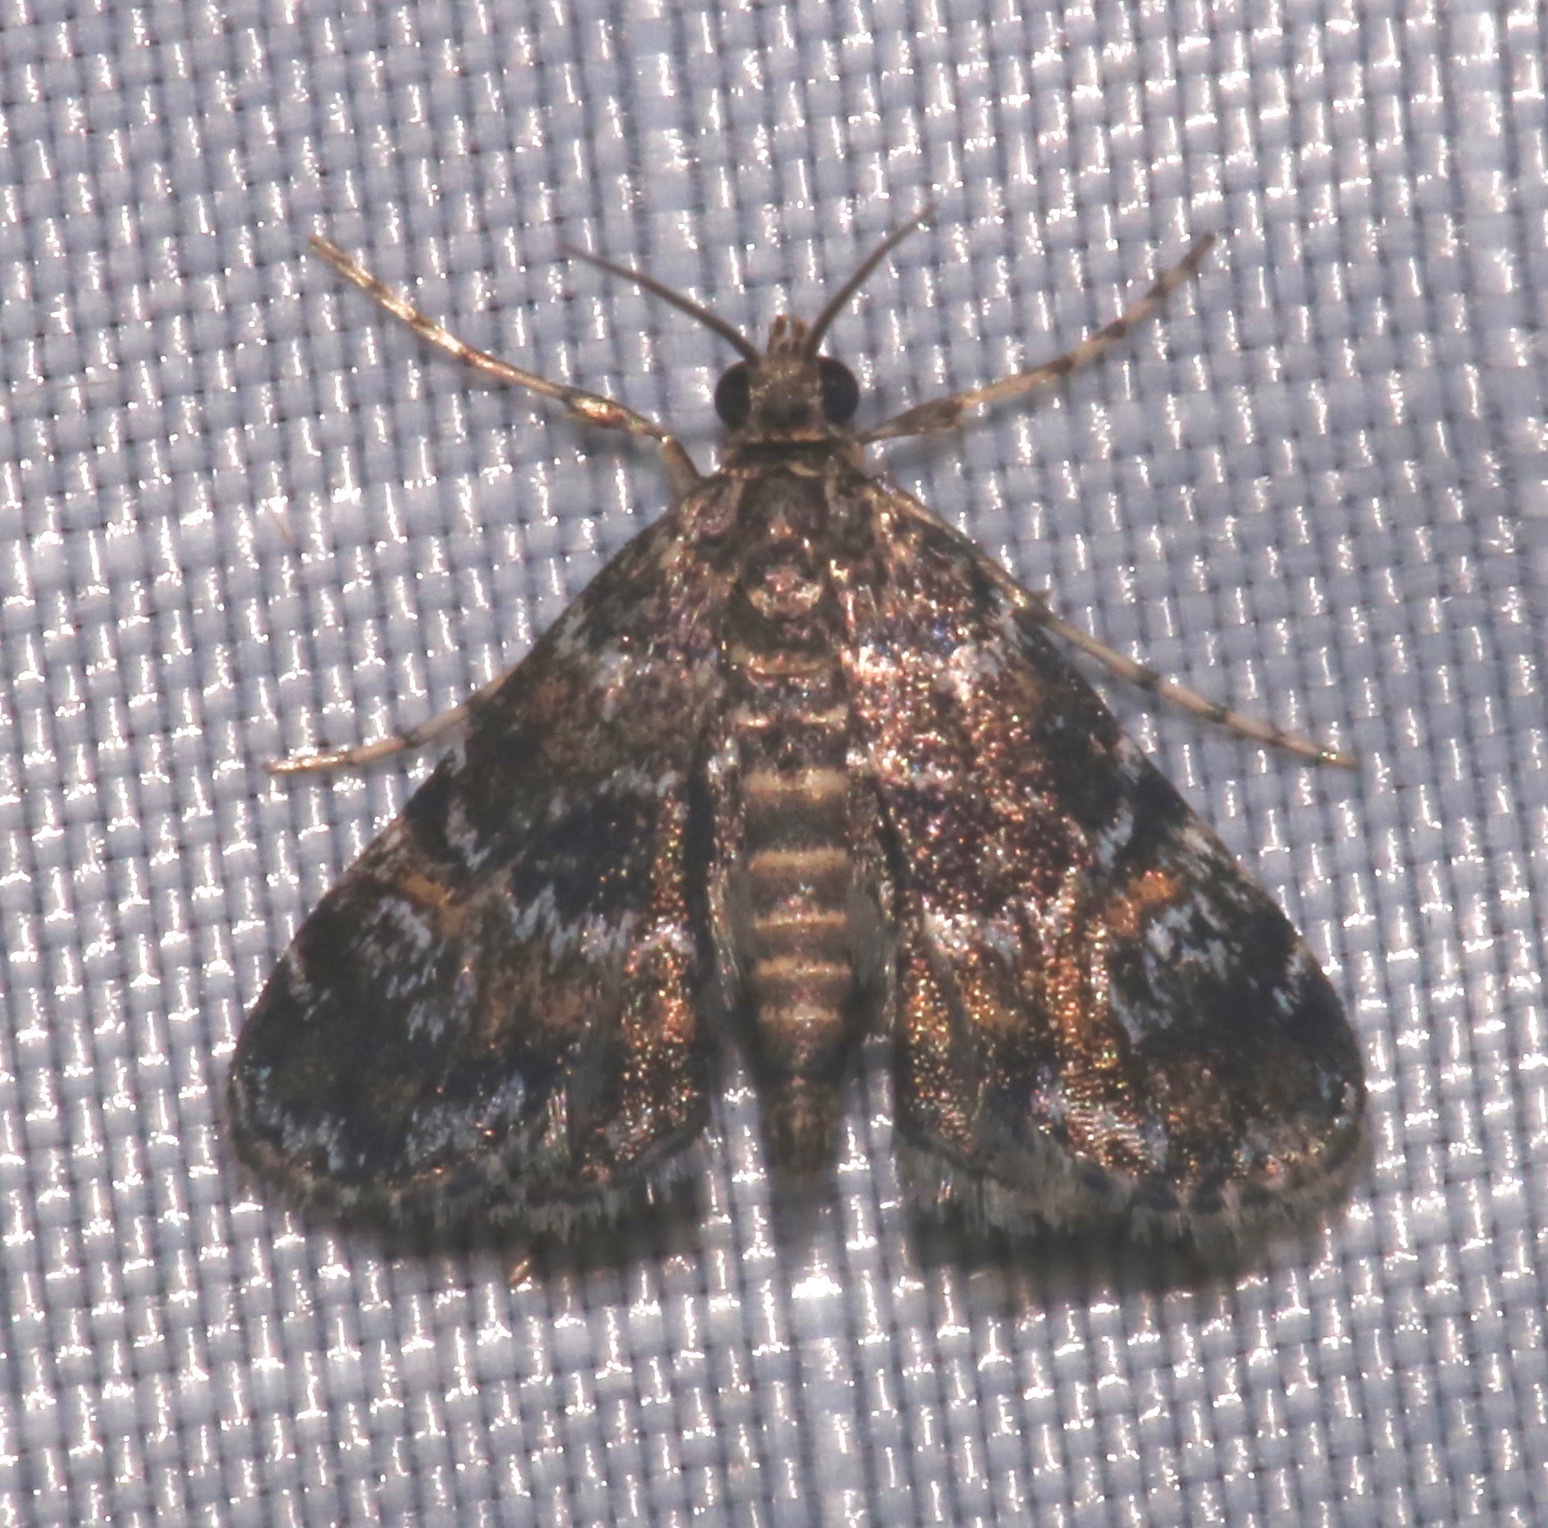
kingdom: Animalia
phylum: Arthropoda
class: Insecta
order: Lepidoptera
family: Crambidae
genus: Elophila
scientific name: Elophila obliteralis
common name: Waterlily leafcutter moth
